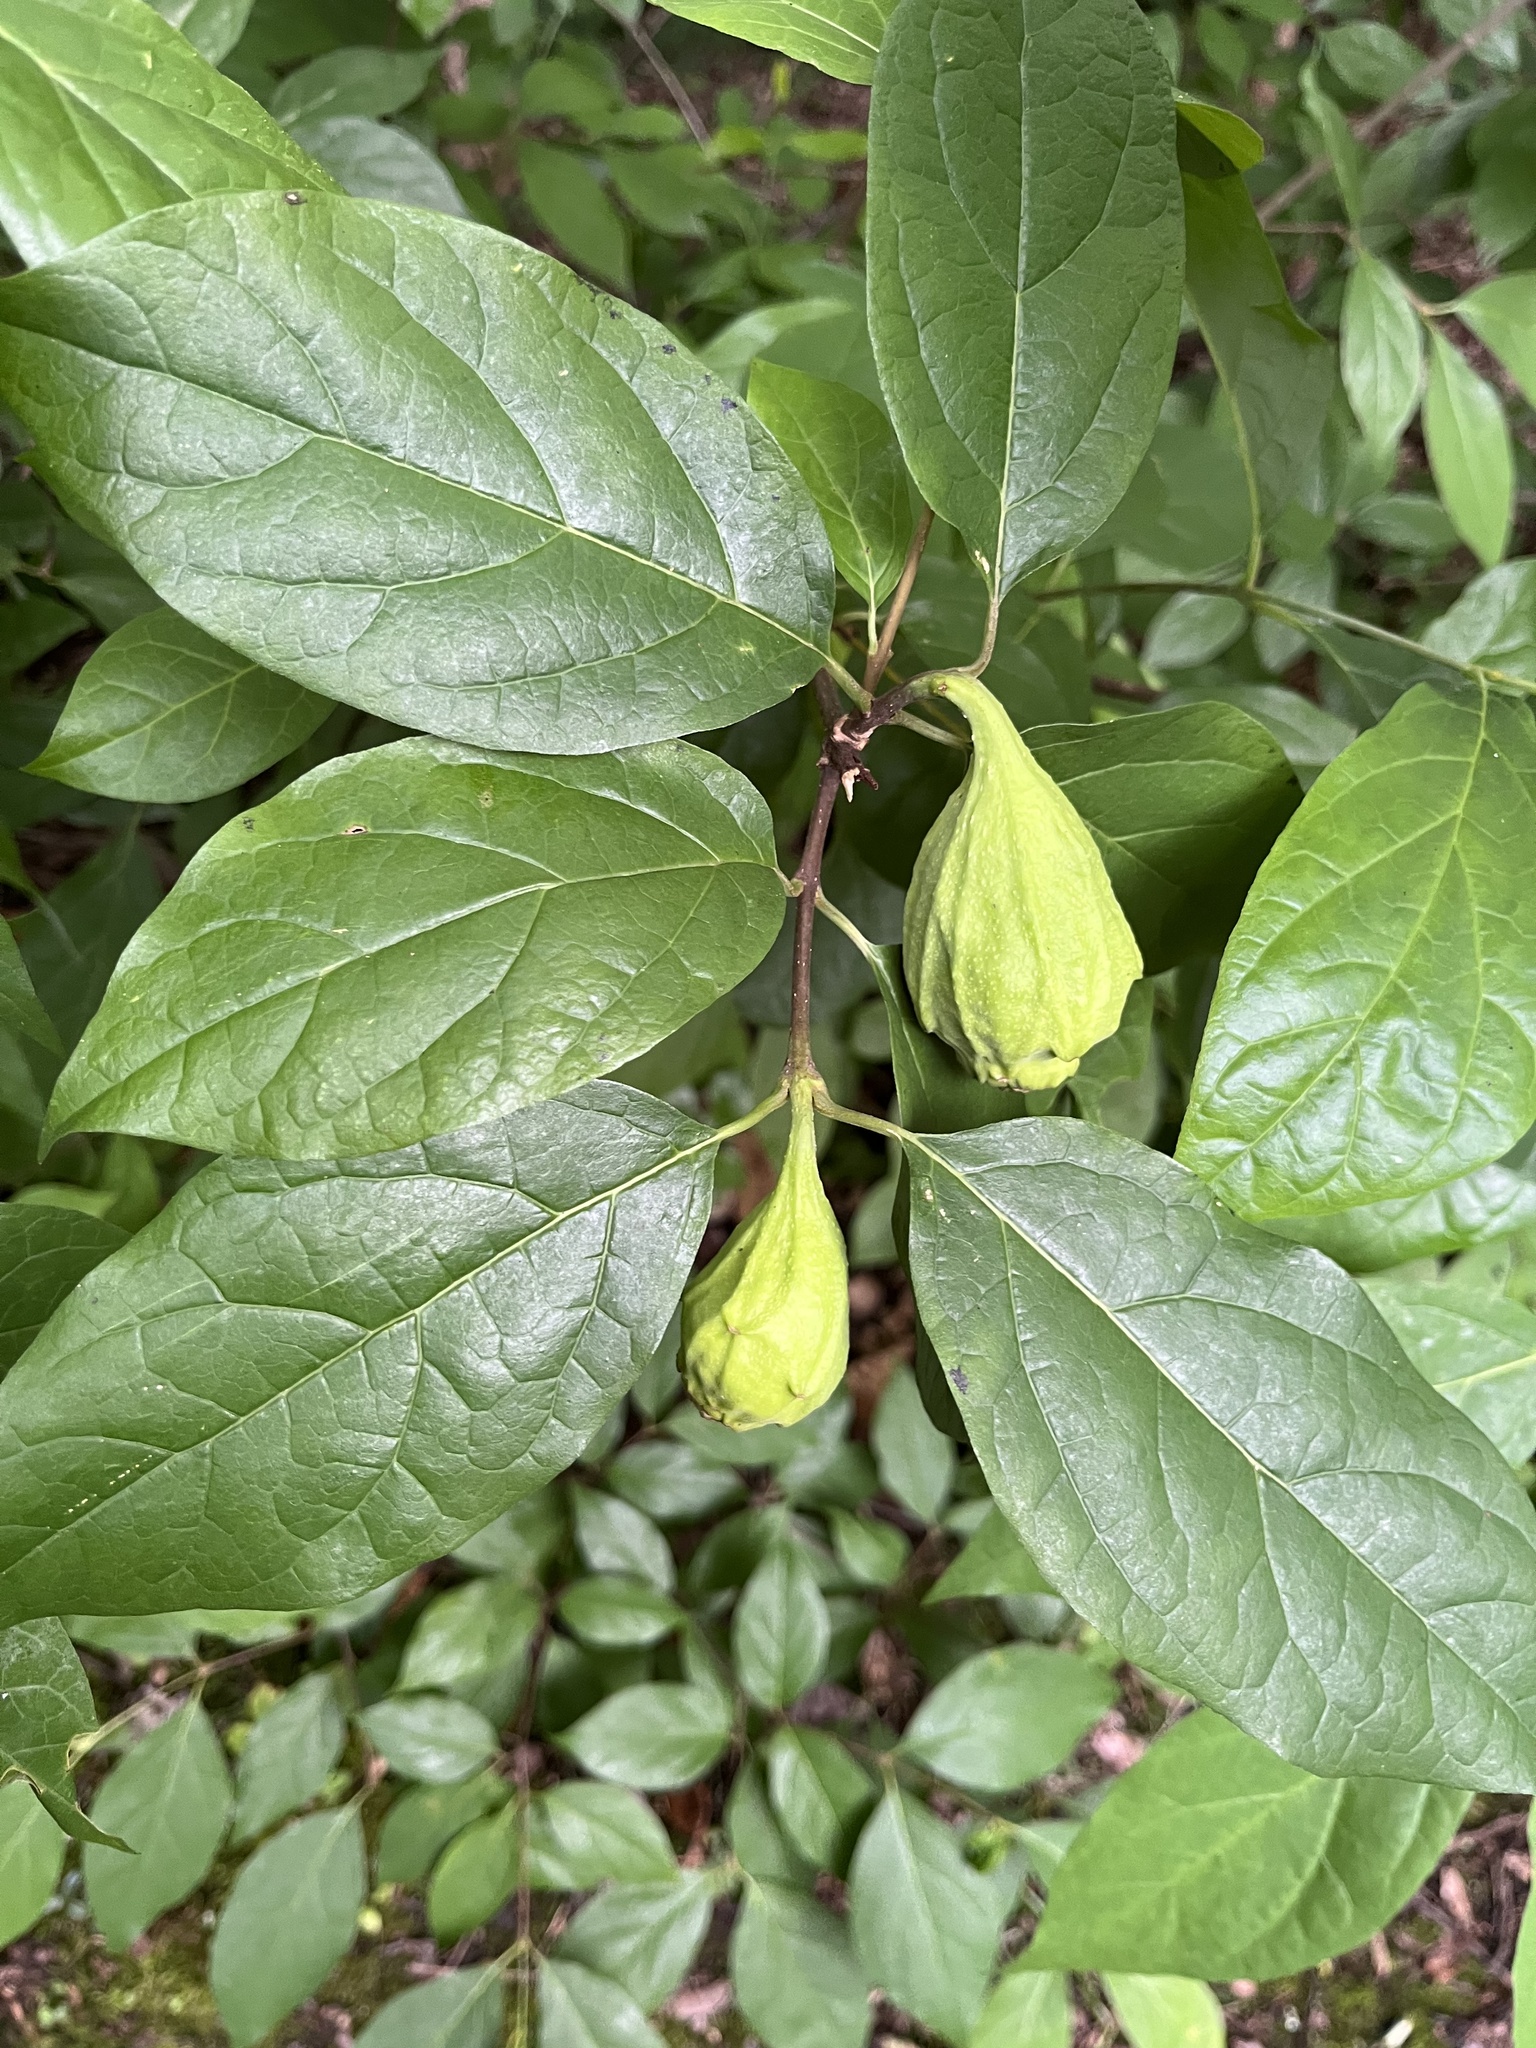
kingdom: Plantae
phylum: Tracheophyta
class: Magnoliopsida
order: Laurales
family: Calycanthaceae
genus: Calycanthus
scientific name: Calycanthus floridus
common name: Carolina-allspice
